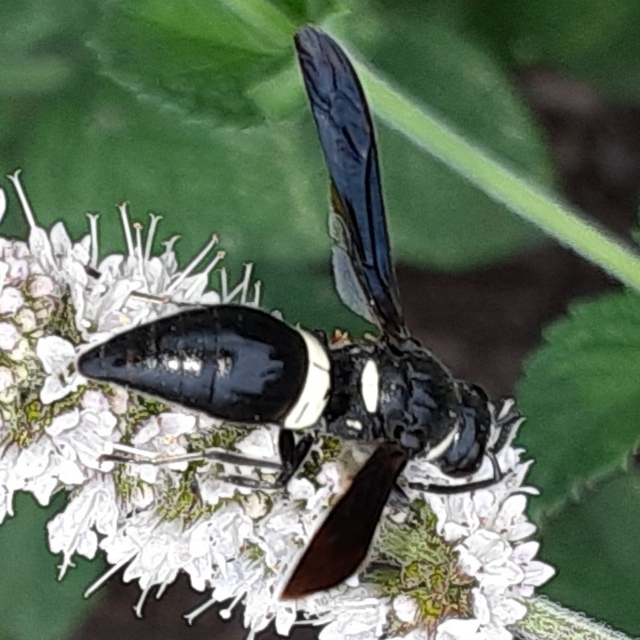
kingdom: Animalia
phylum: Arthropoda
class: Insecta
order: Hymenoptera
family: Eumenidae
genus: Monobia
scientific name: Monobia quadridens
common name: Four-toothed mason wasp
